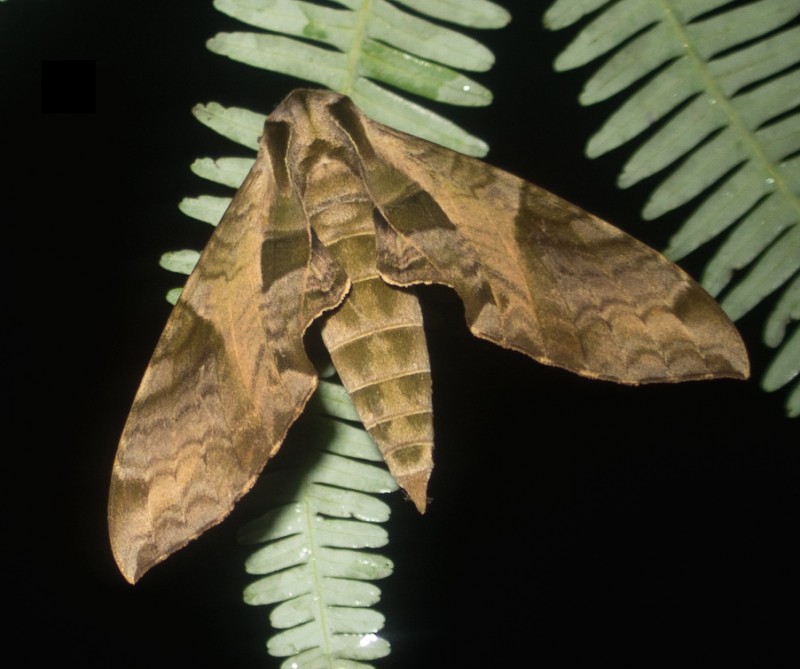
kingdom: Animalia
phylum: Arthropoda
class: Insecta
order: Lepidoptera
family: Sphingidae
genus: Eumorpha
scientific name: Eumorpha megaeacus
